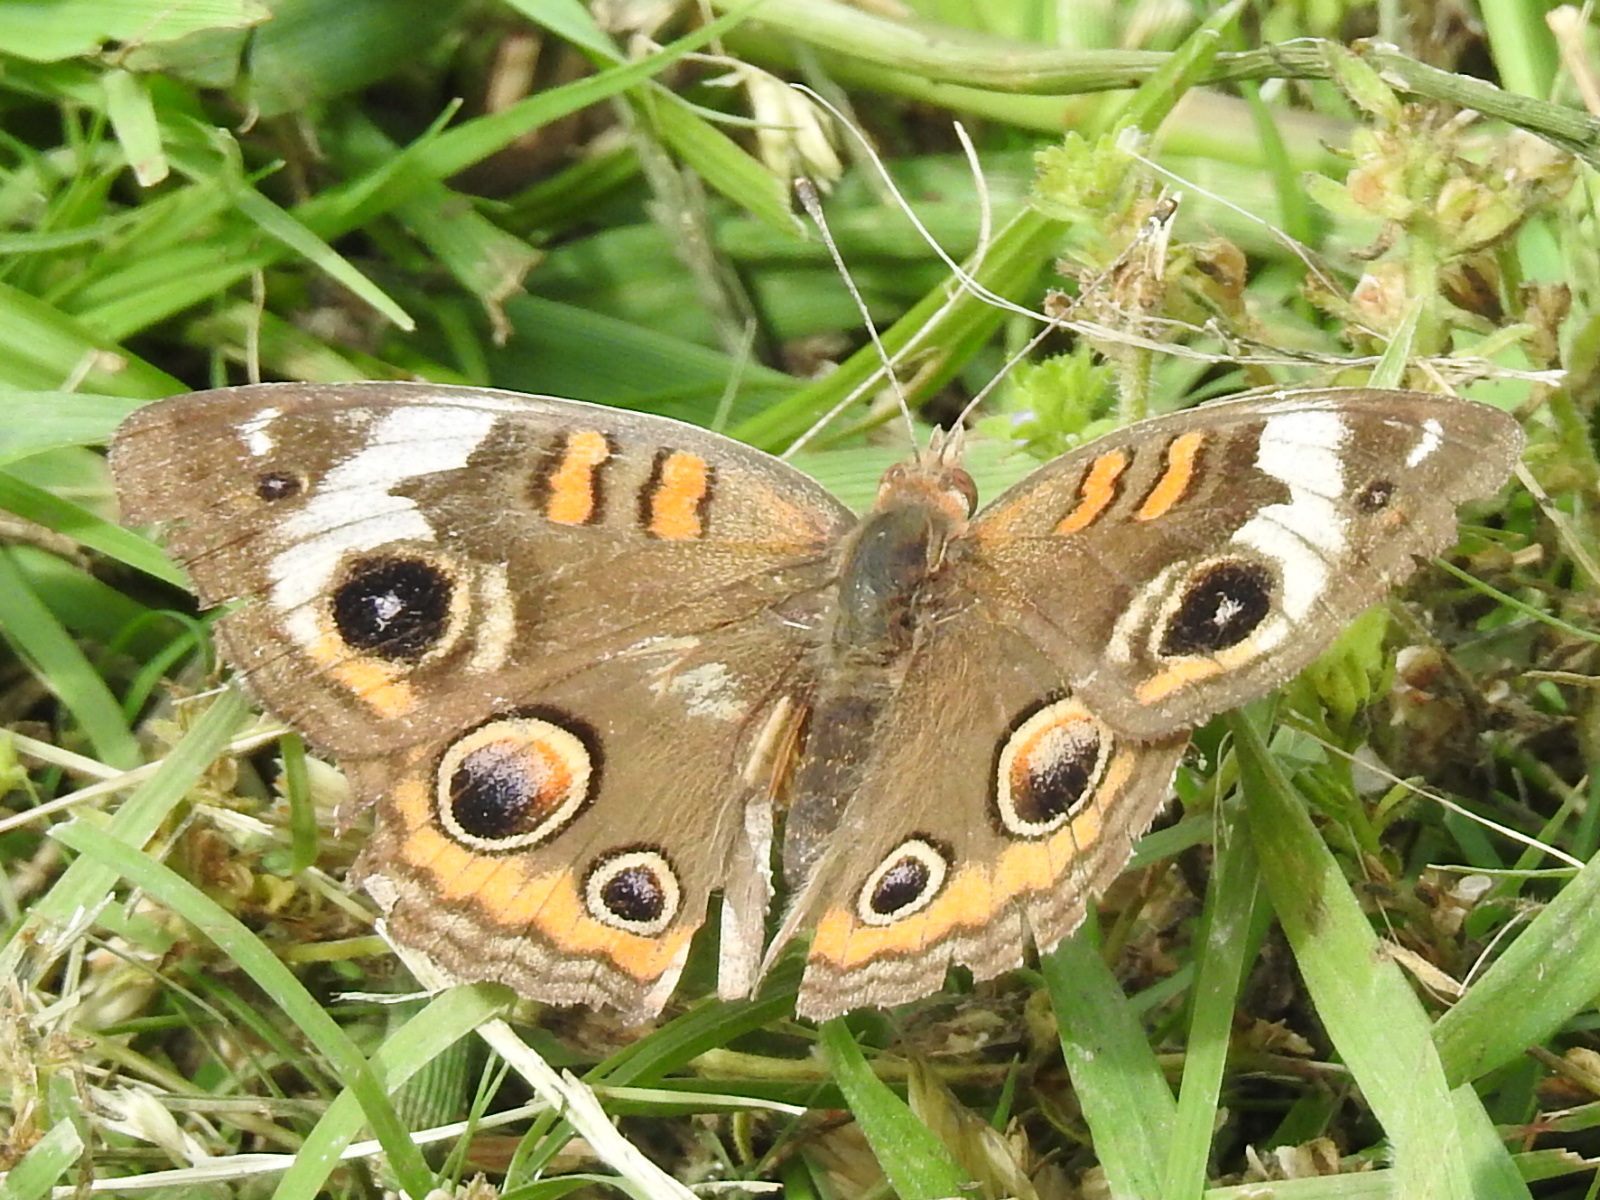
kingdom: Animalia
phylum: Arthropoda
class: Insecta
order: Lepidoptera
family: Nymphalidae
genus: Junonia
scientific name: Junonia coenia
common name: Common buckeye
